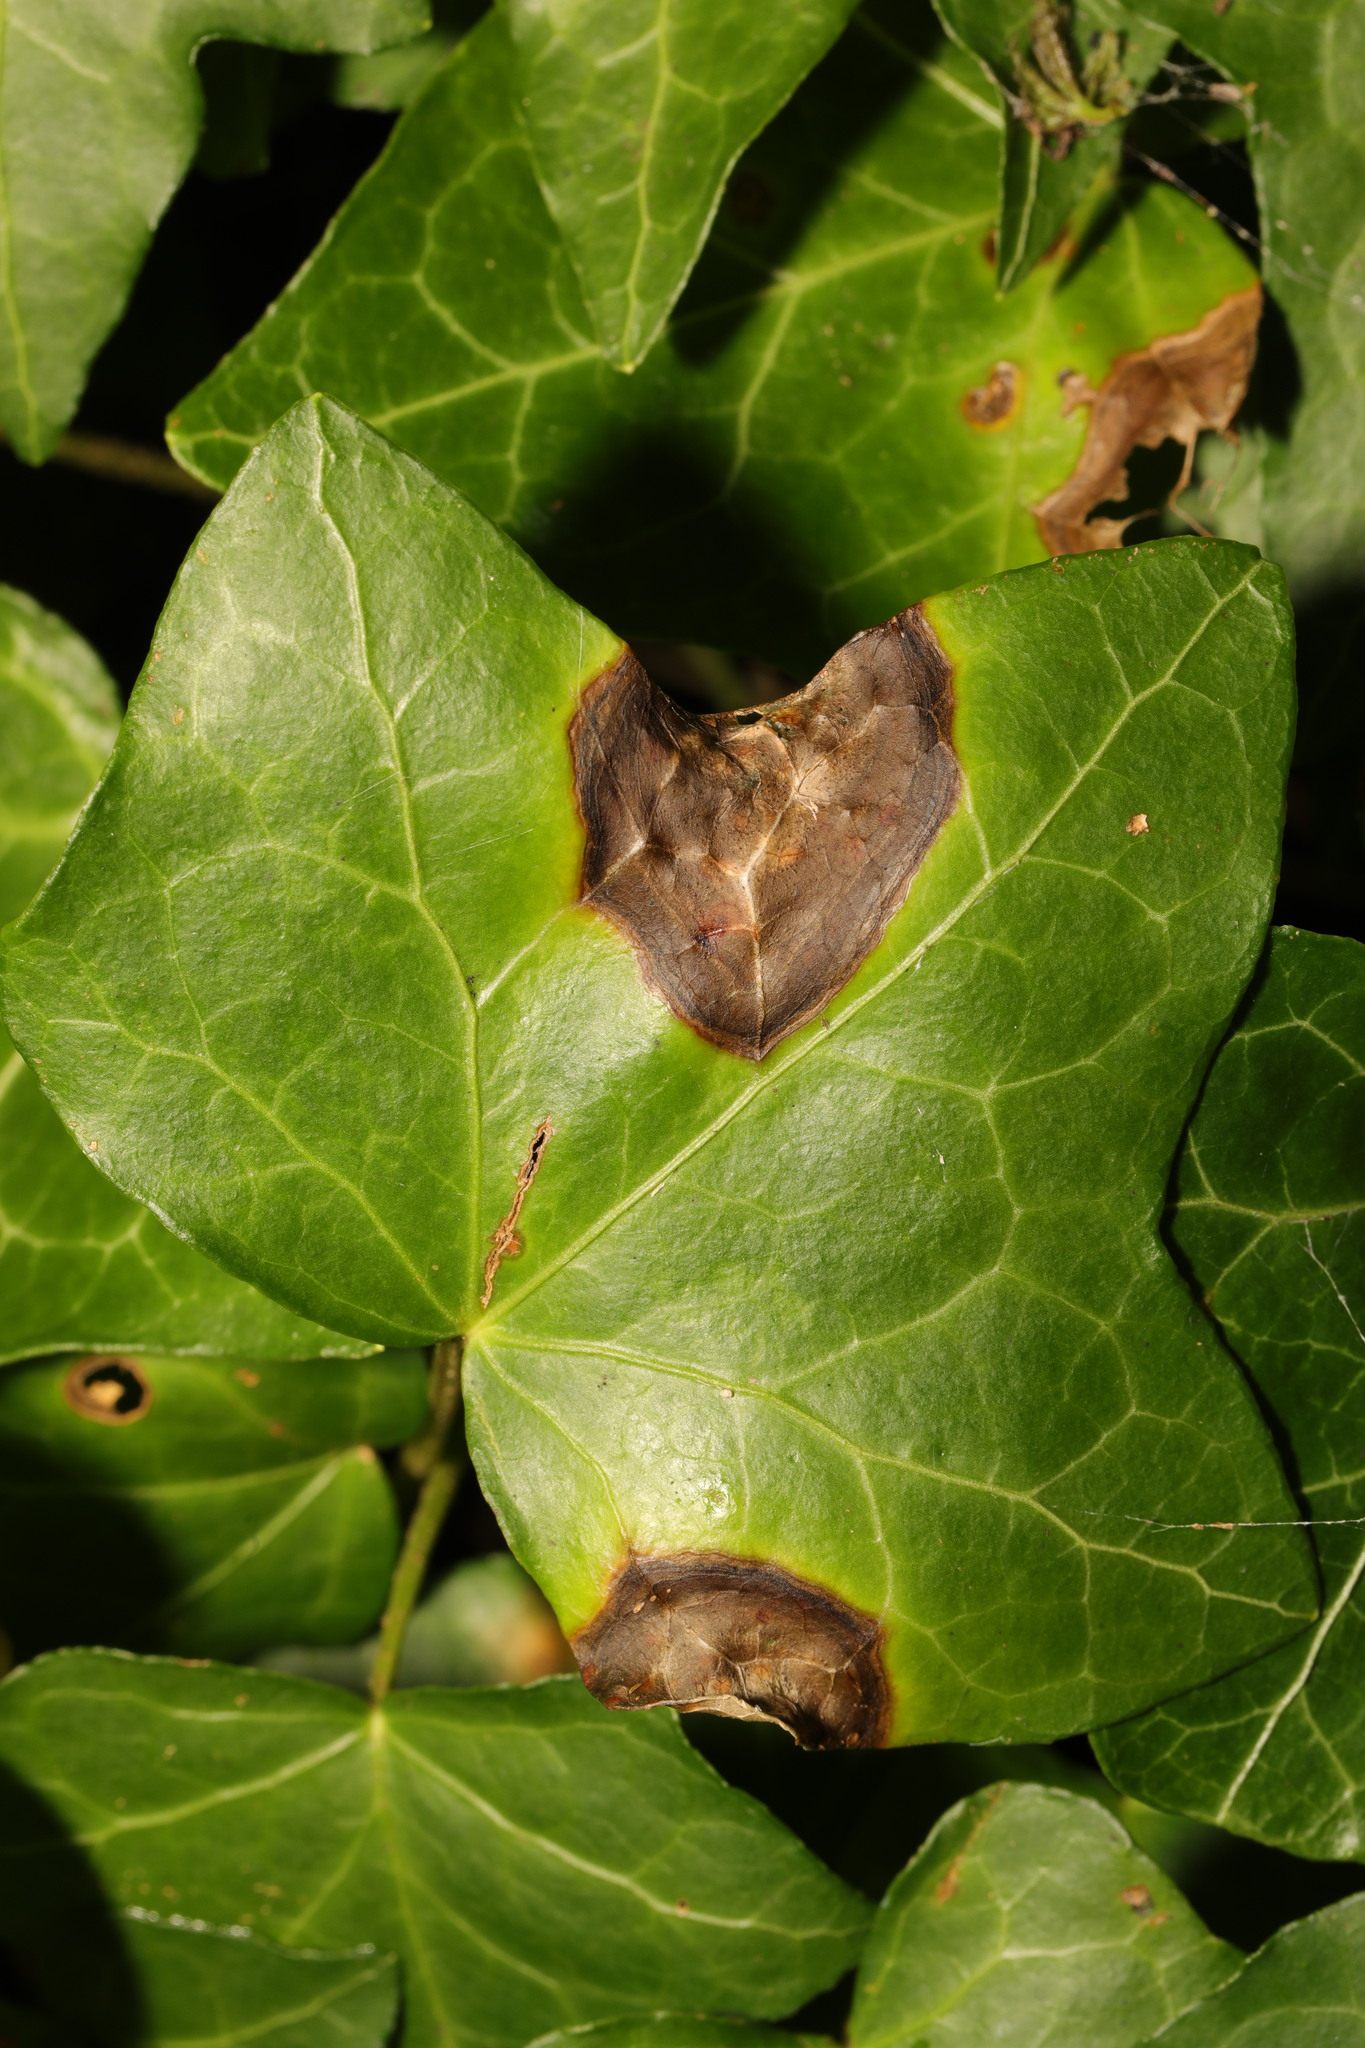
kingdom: Fungi
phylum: Ascomycota
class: Dothideomycetes
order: Pleosporales
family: Didymellaceae
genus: Boeremia
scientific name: Boeremia hedericola
